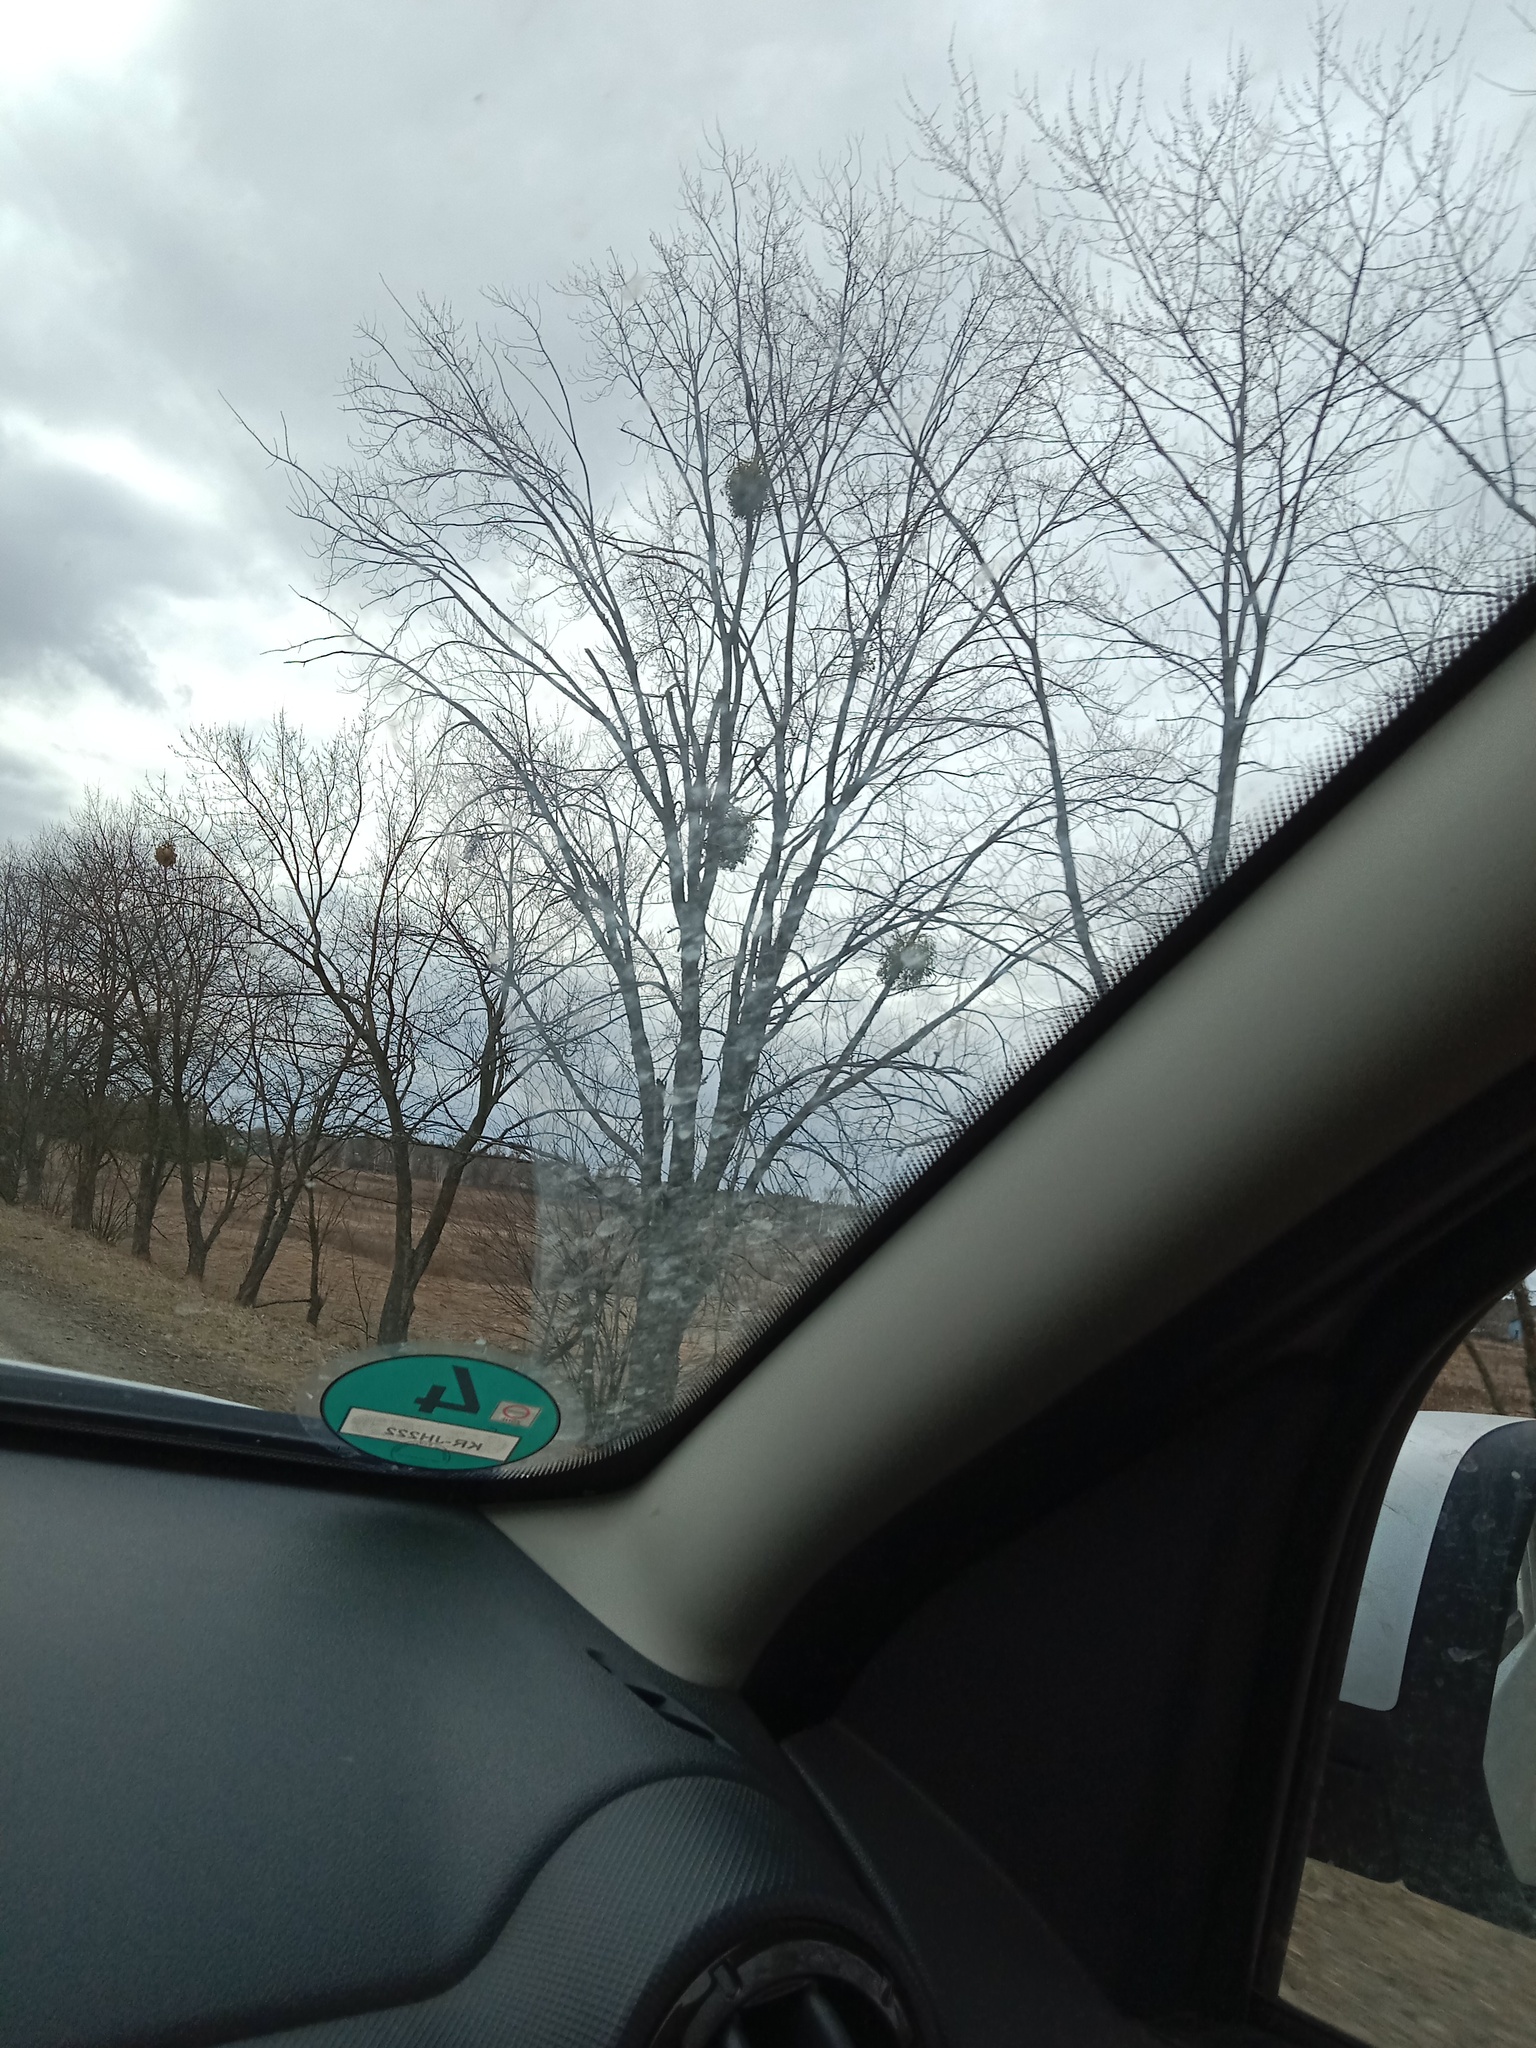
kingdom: Plantae
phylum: Tracheophyta
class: Magnoliopsida
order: Santalales
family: Viscaceae
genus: Viscum
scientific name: Viscum album
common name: Mistletoe
